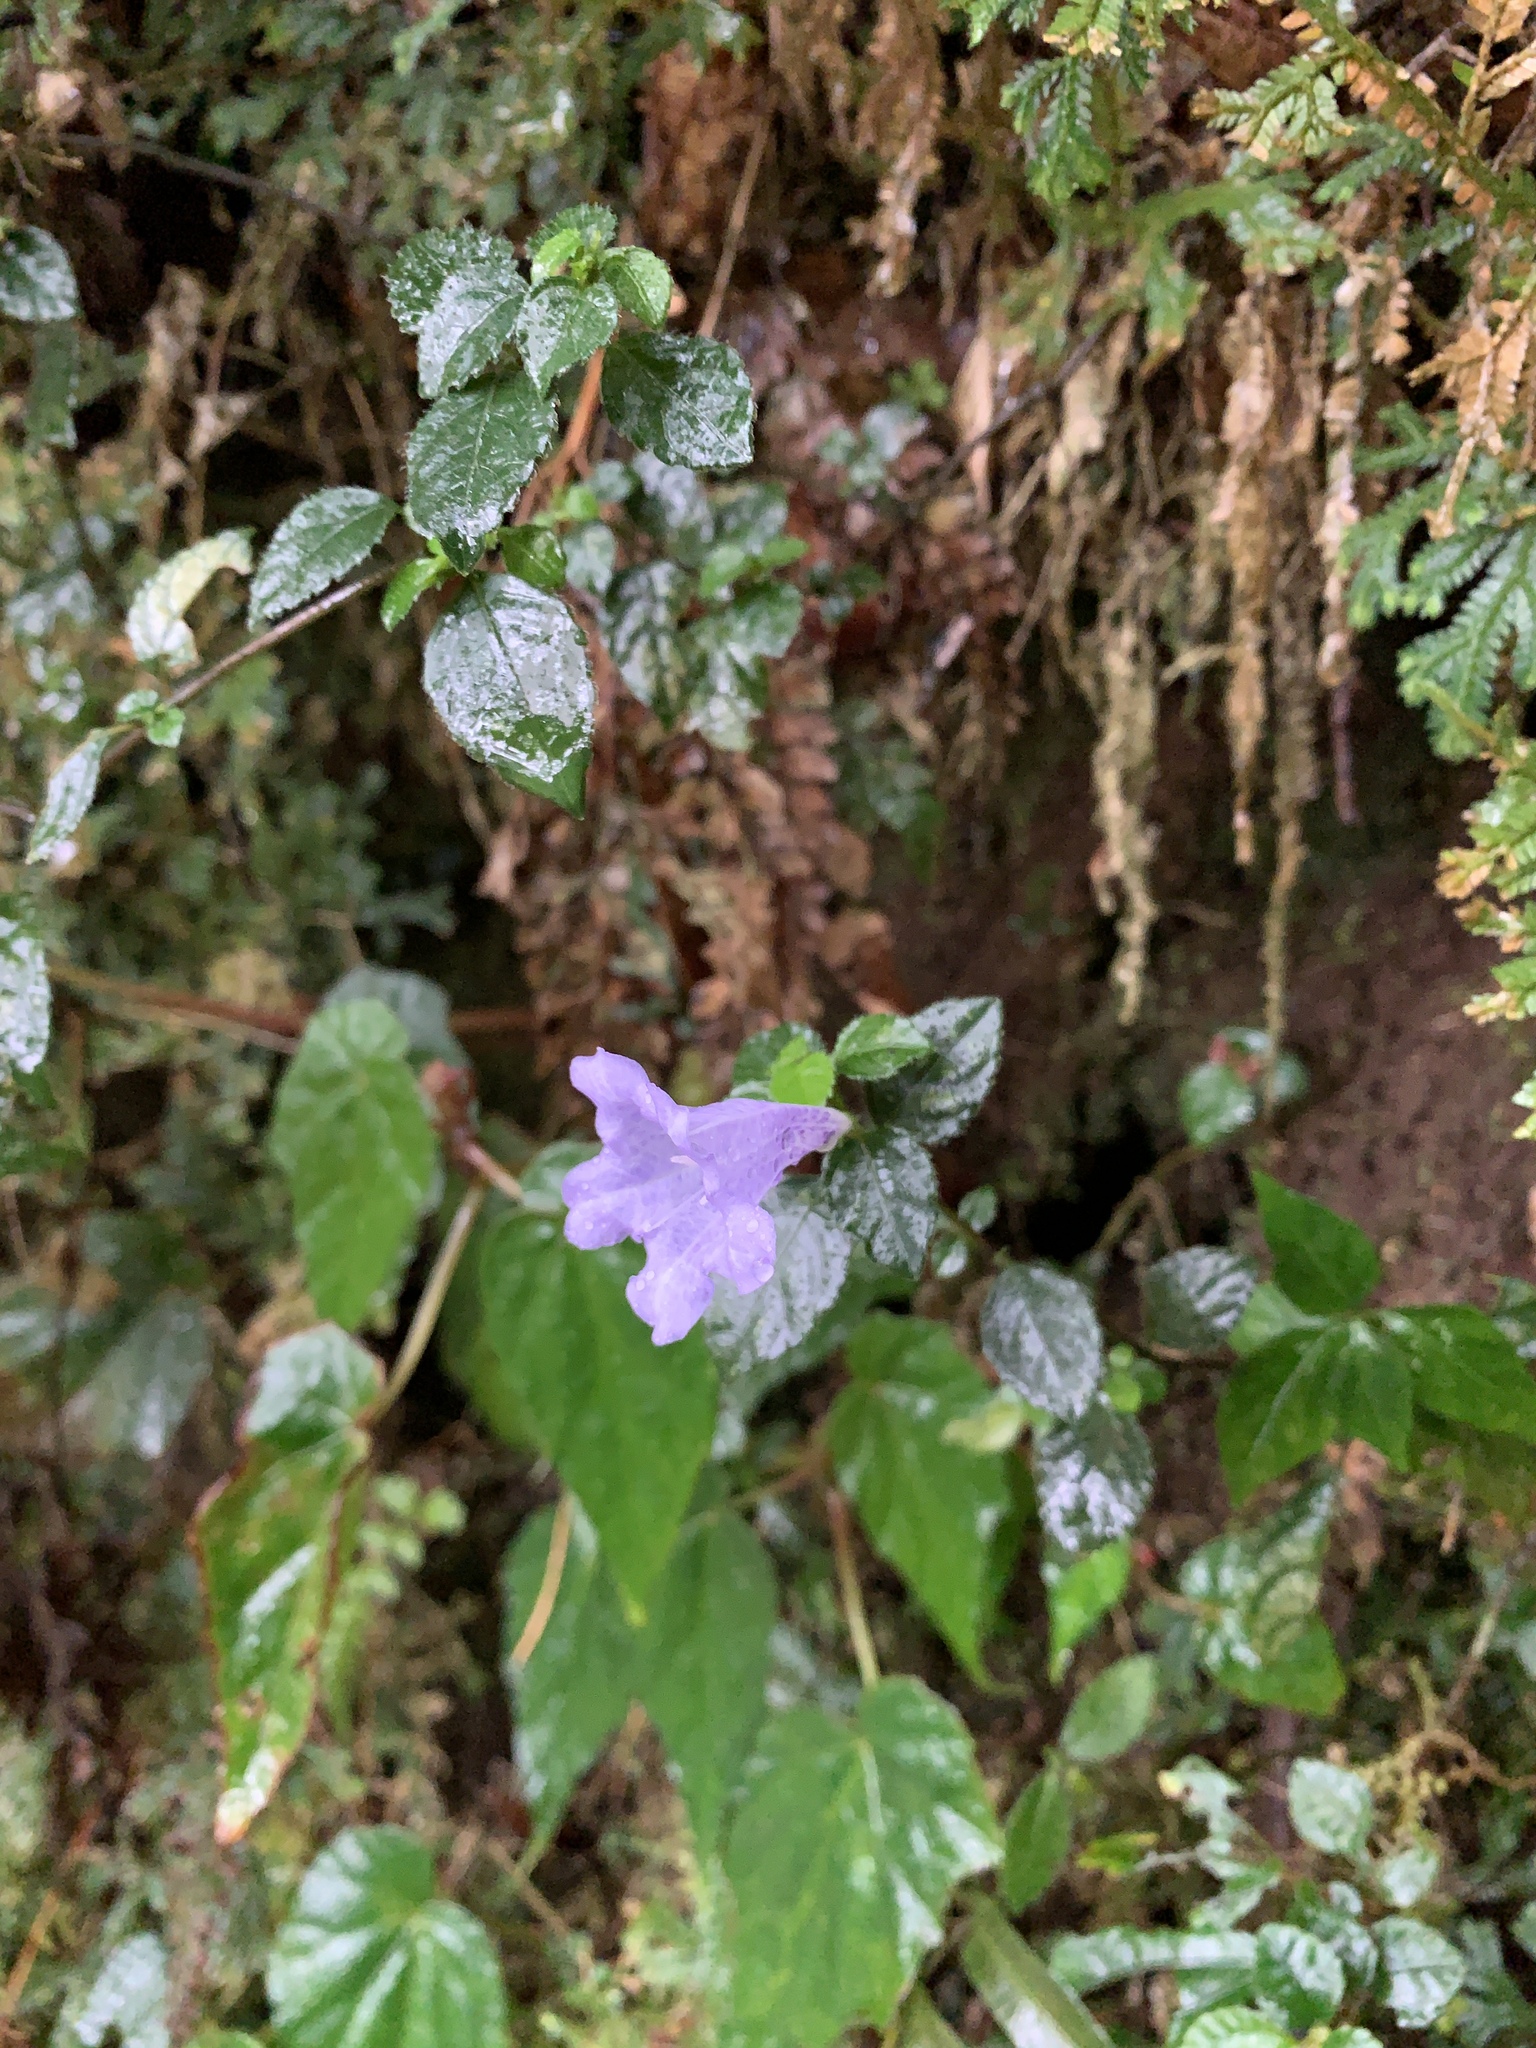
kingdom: Plantae
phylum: Tracheophyta
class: Magnoliopsida
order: Lamiales
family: Acanthaceae
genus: Strobilanthes
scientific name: Strobilanthes rankanensis
